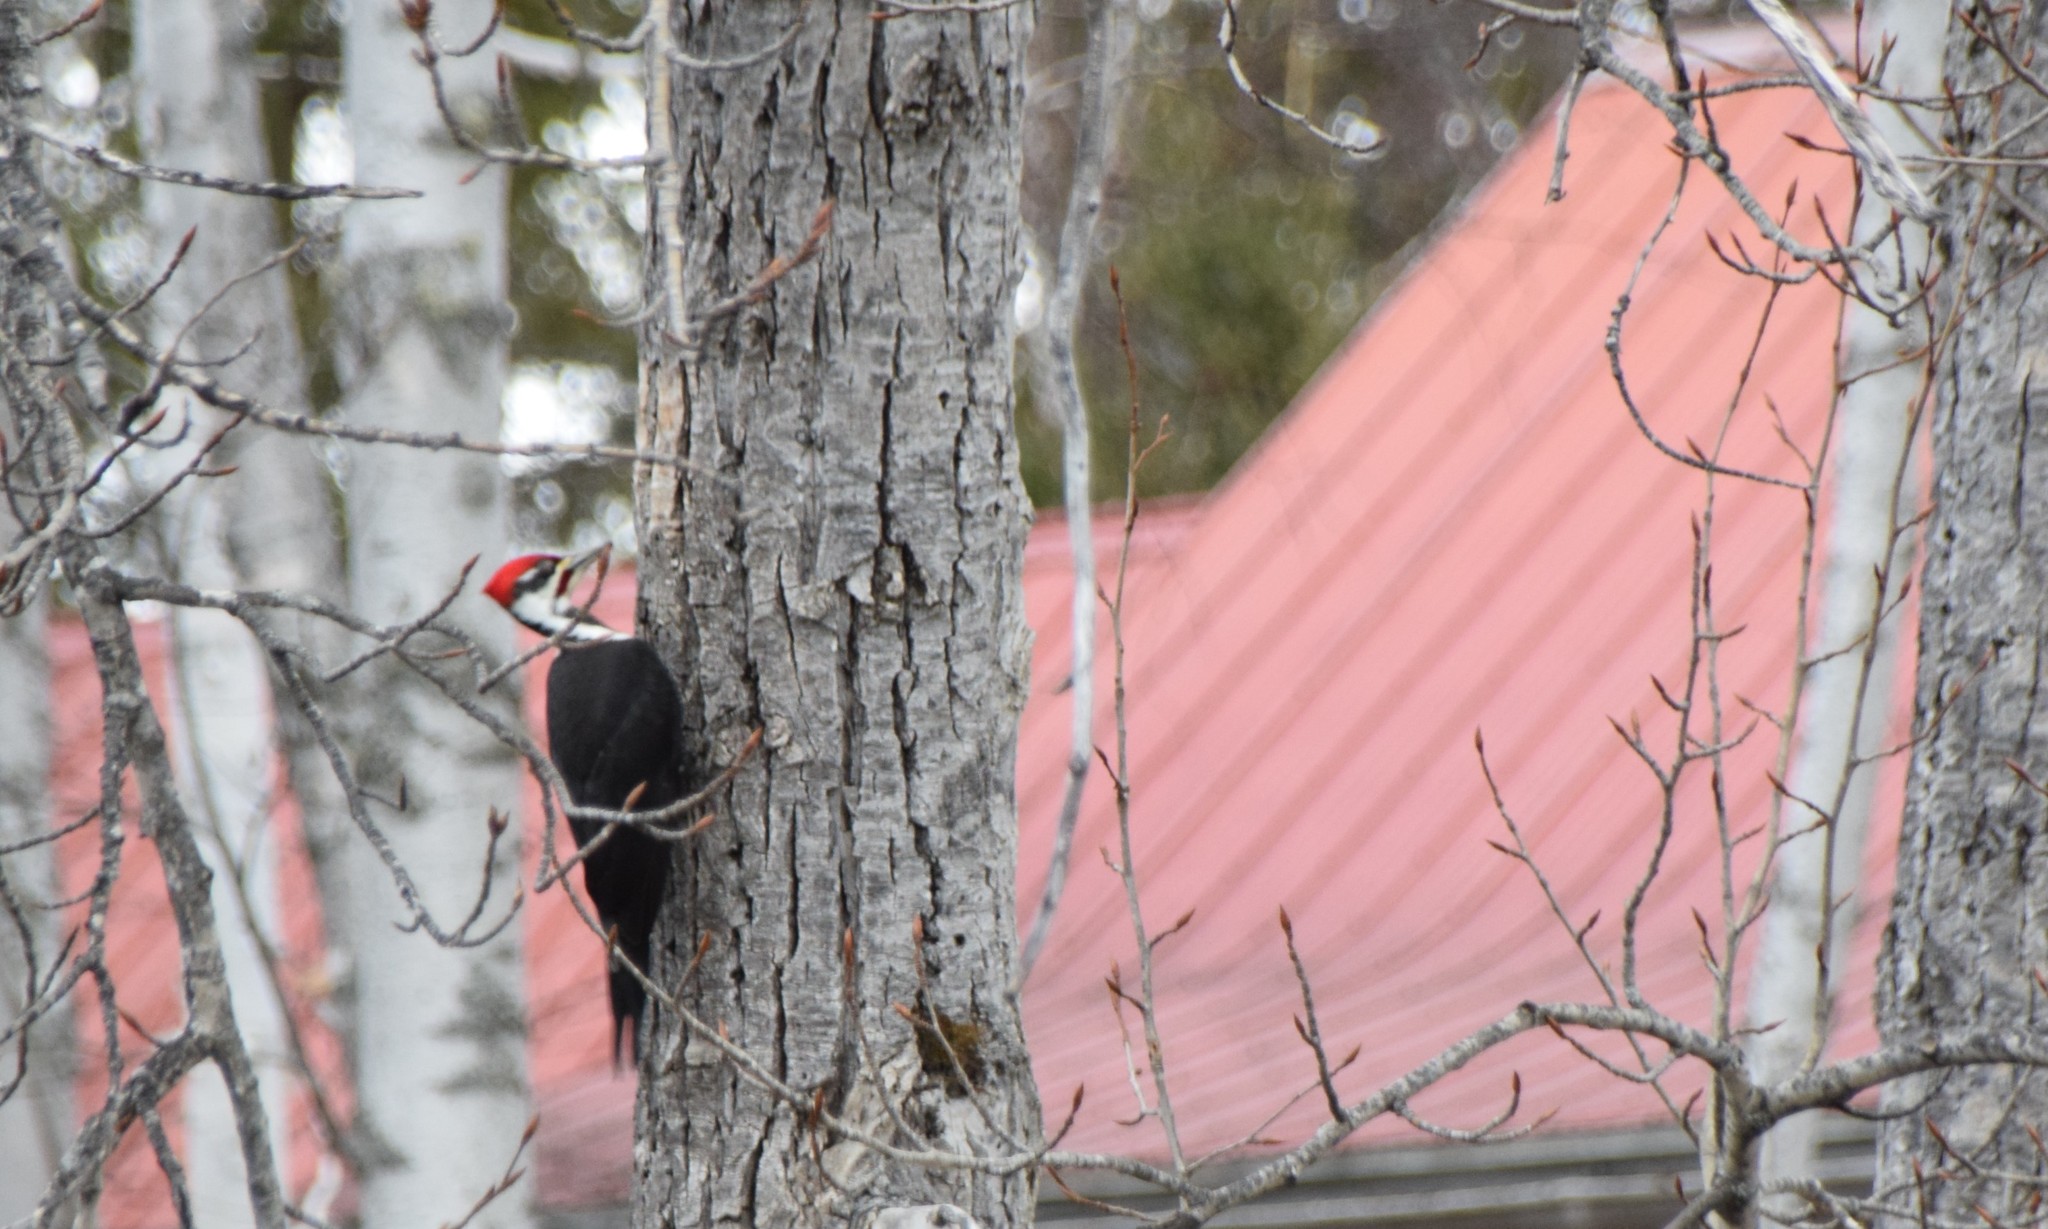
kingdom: Animalia
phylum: Chordata
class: Aves
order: Piciformes
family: Picidae
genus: Dryocopus
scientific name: Dryocopus pileatus
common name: Pileated woodpecker
